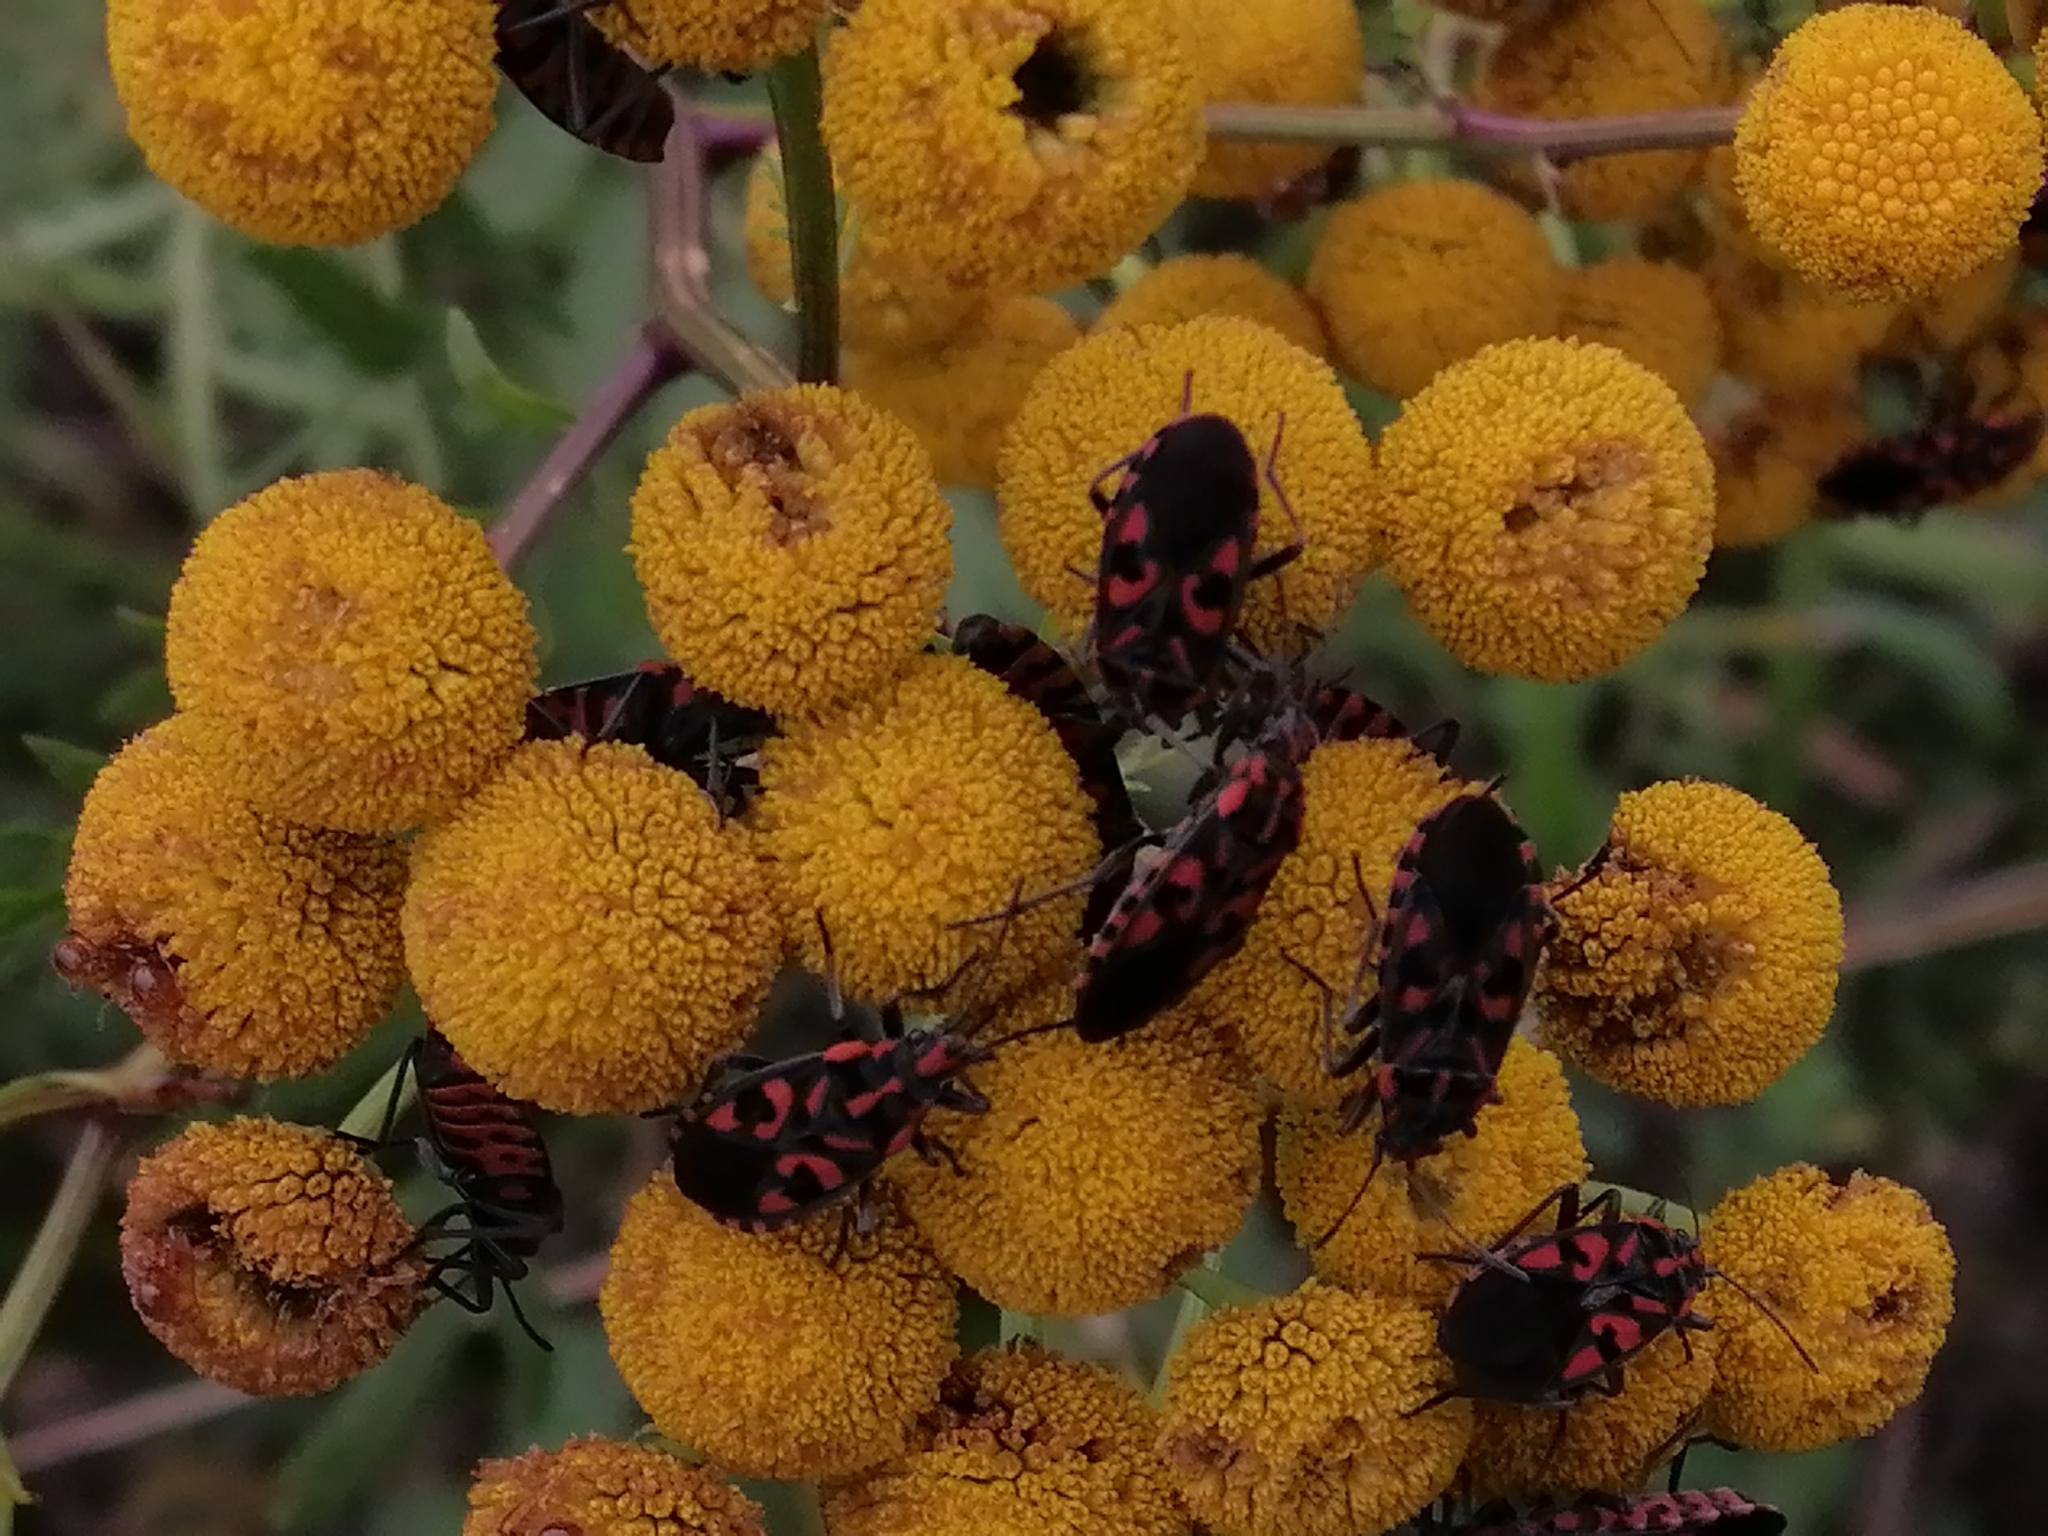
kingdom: Animalia
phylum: Arthropoda
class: Insecta
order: Hemiptera
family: Lygaeidae
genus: Spilostethus
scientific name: Spilostethus saxatilis
